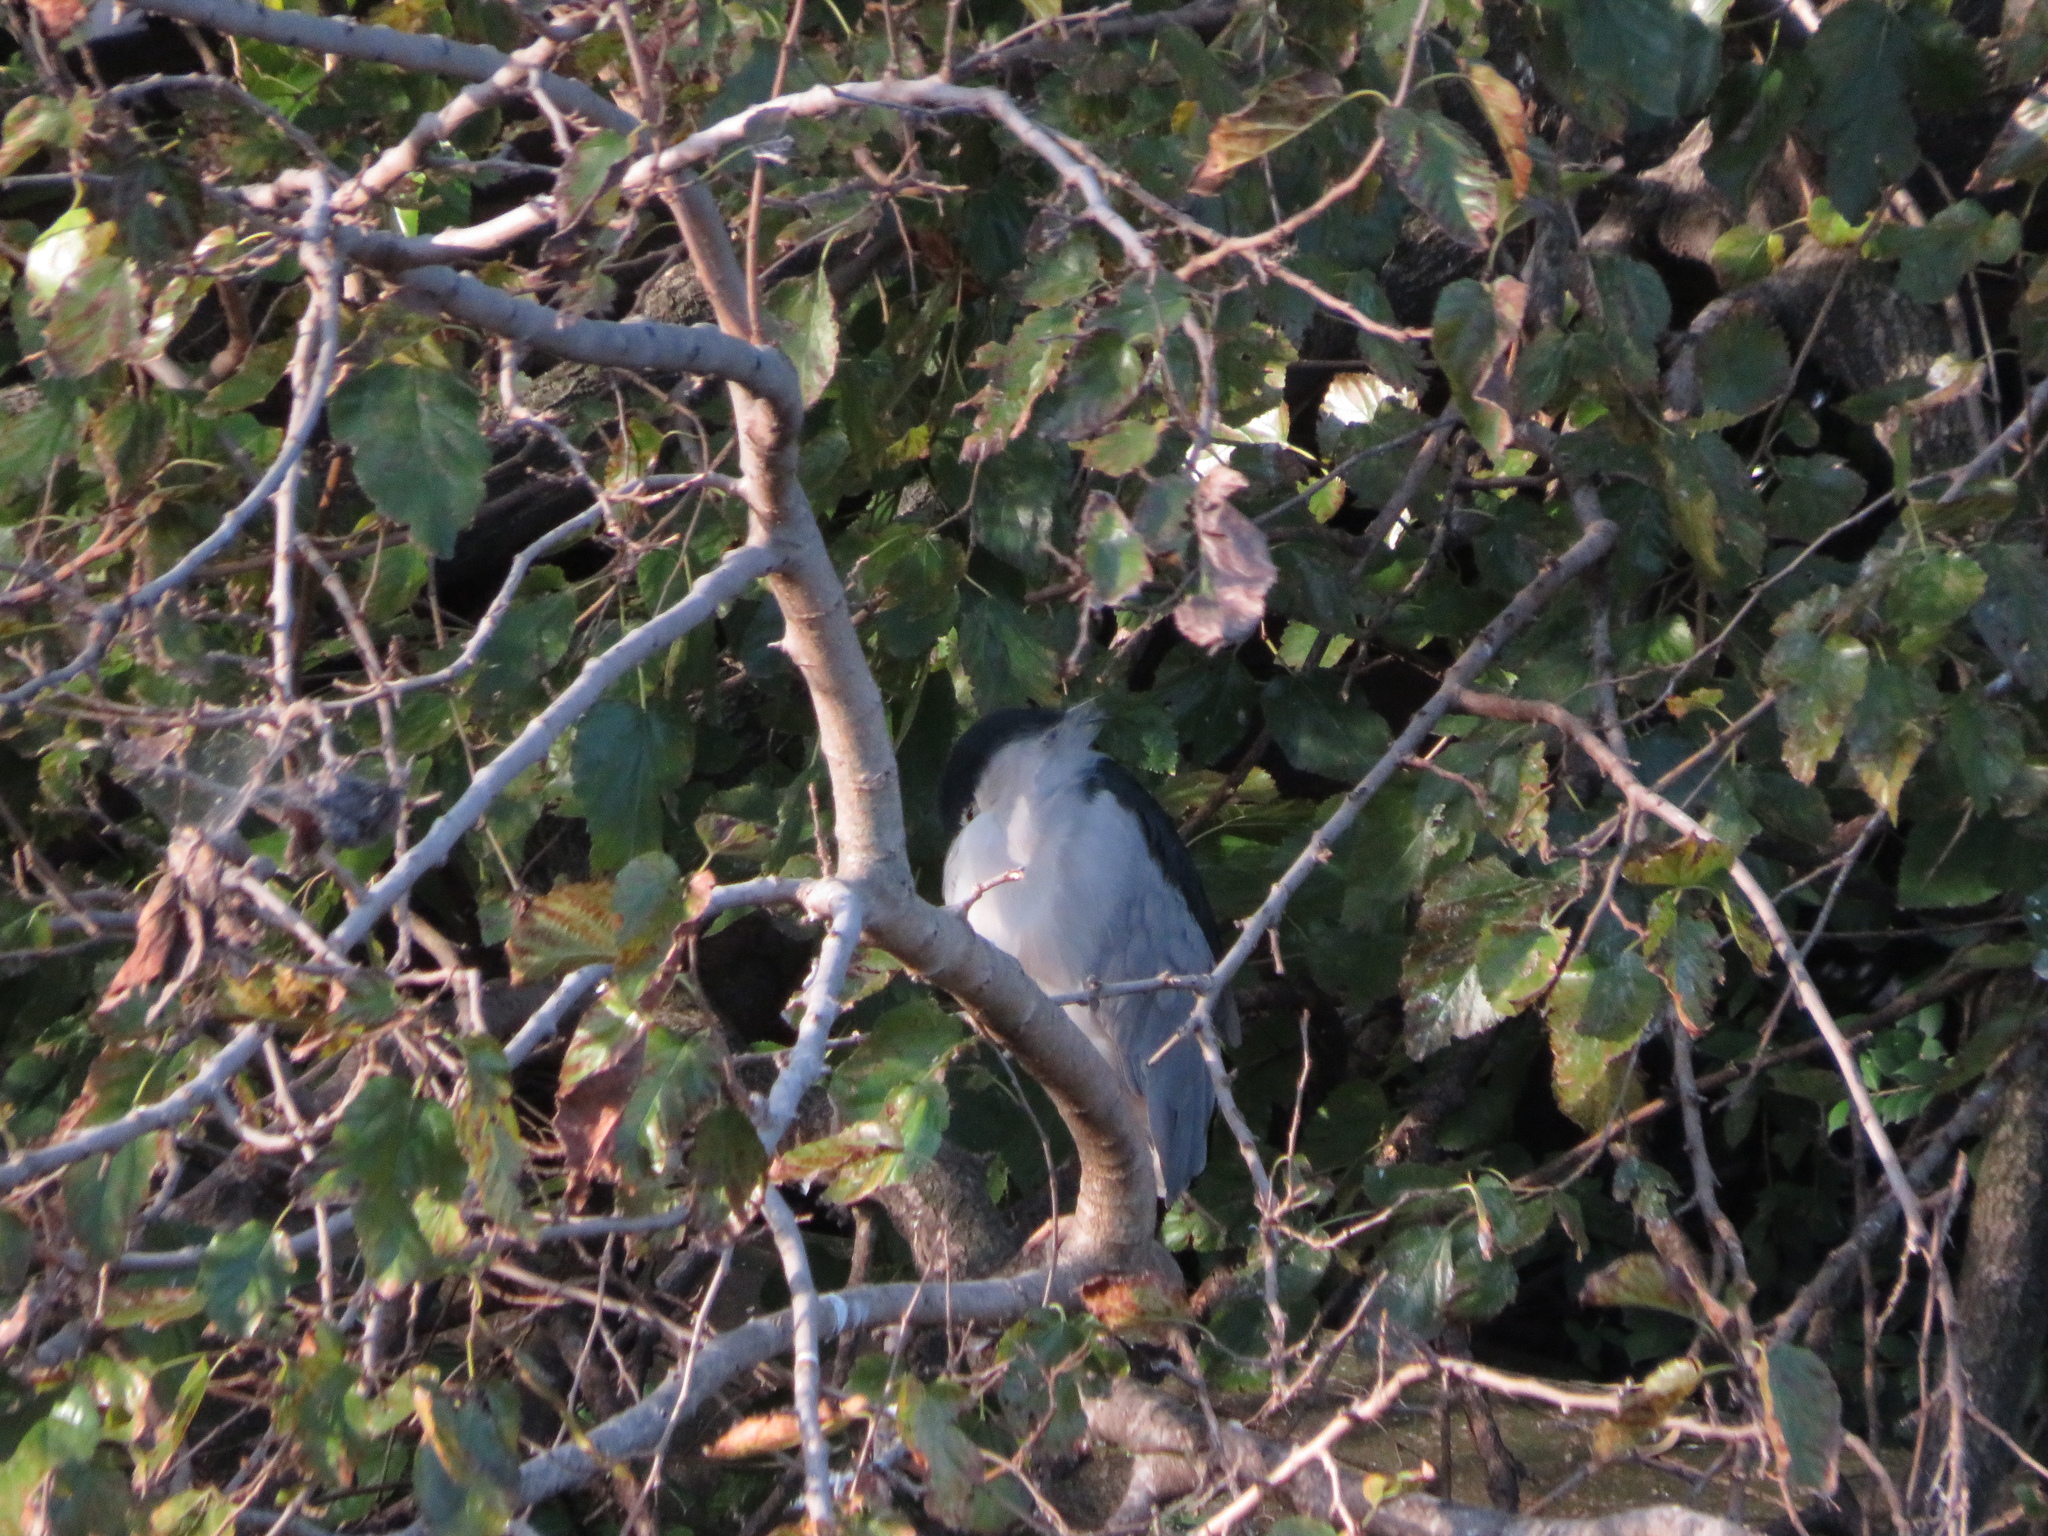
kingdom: Animalia
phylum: Chordata
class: Aves
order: Pelecaniformes
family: Ardeidae
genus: Nycticorax
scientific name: Nycticorax nycticorax
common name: Black-crowned night heron
